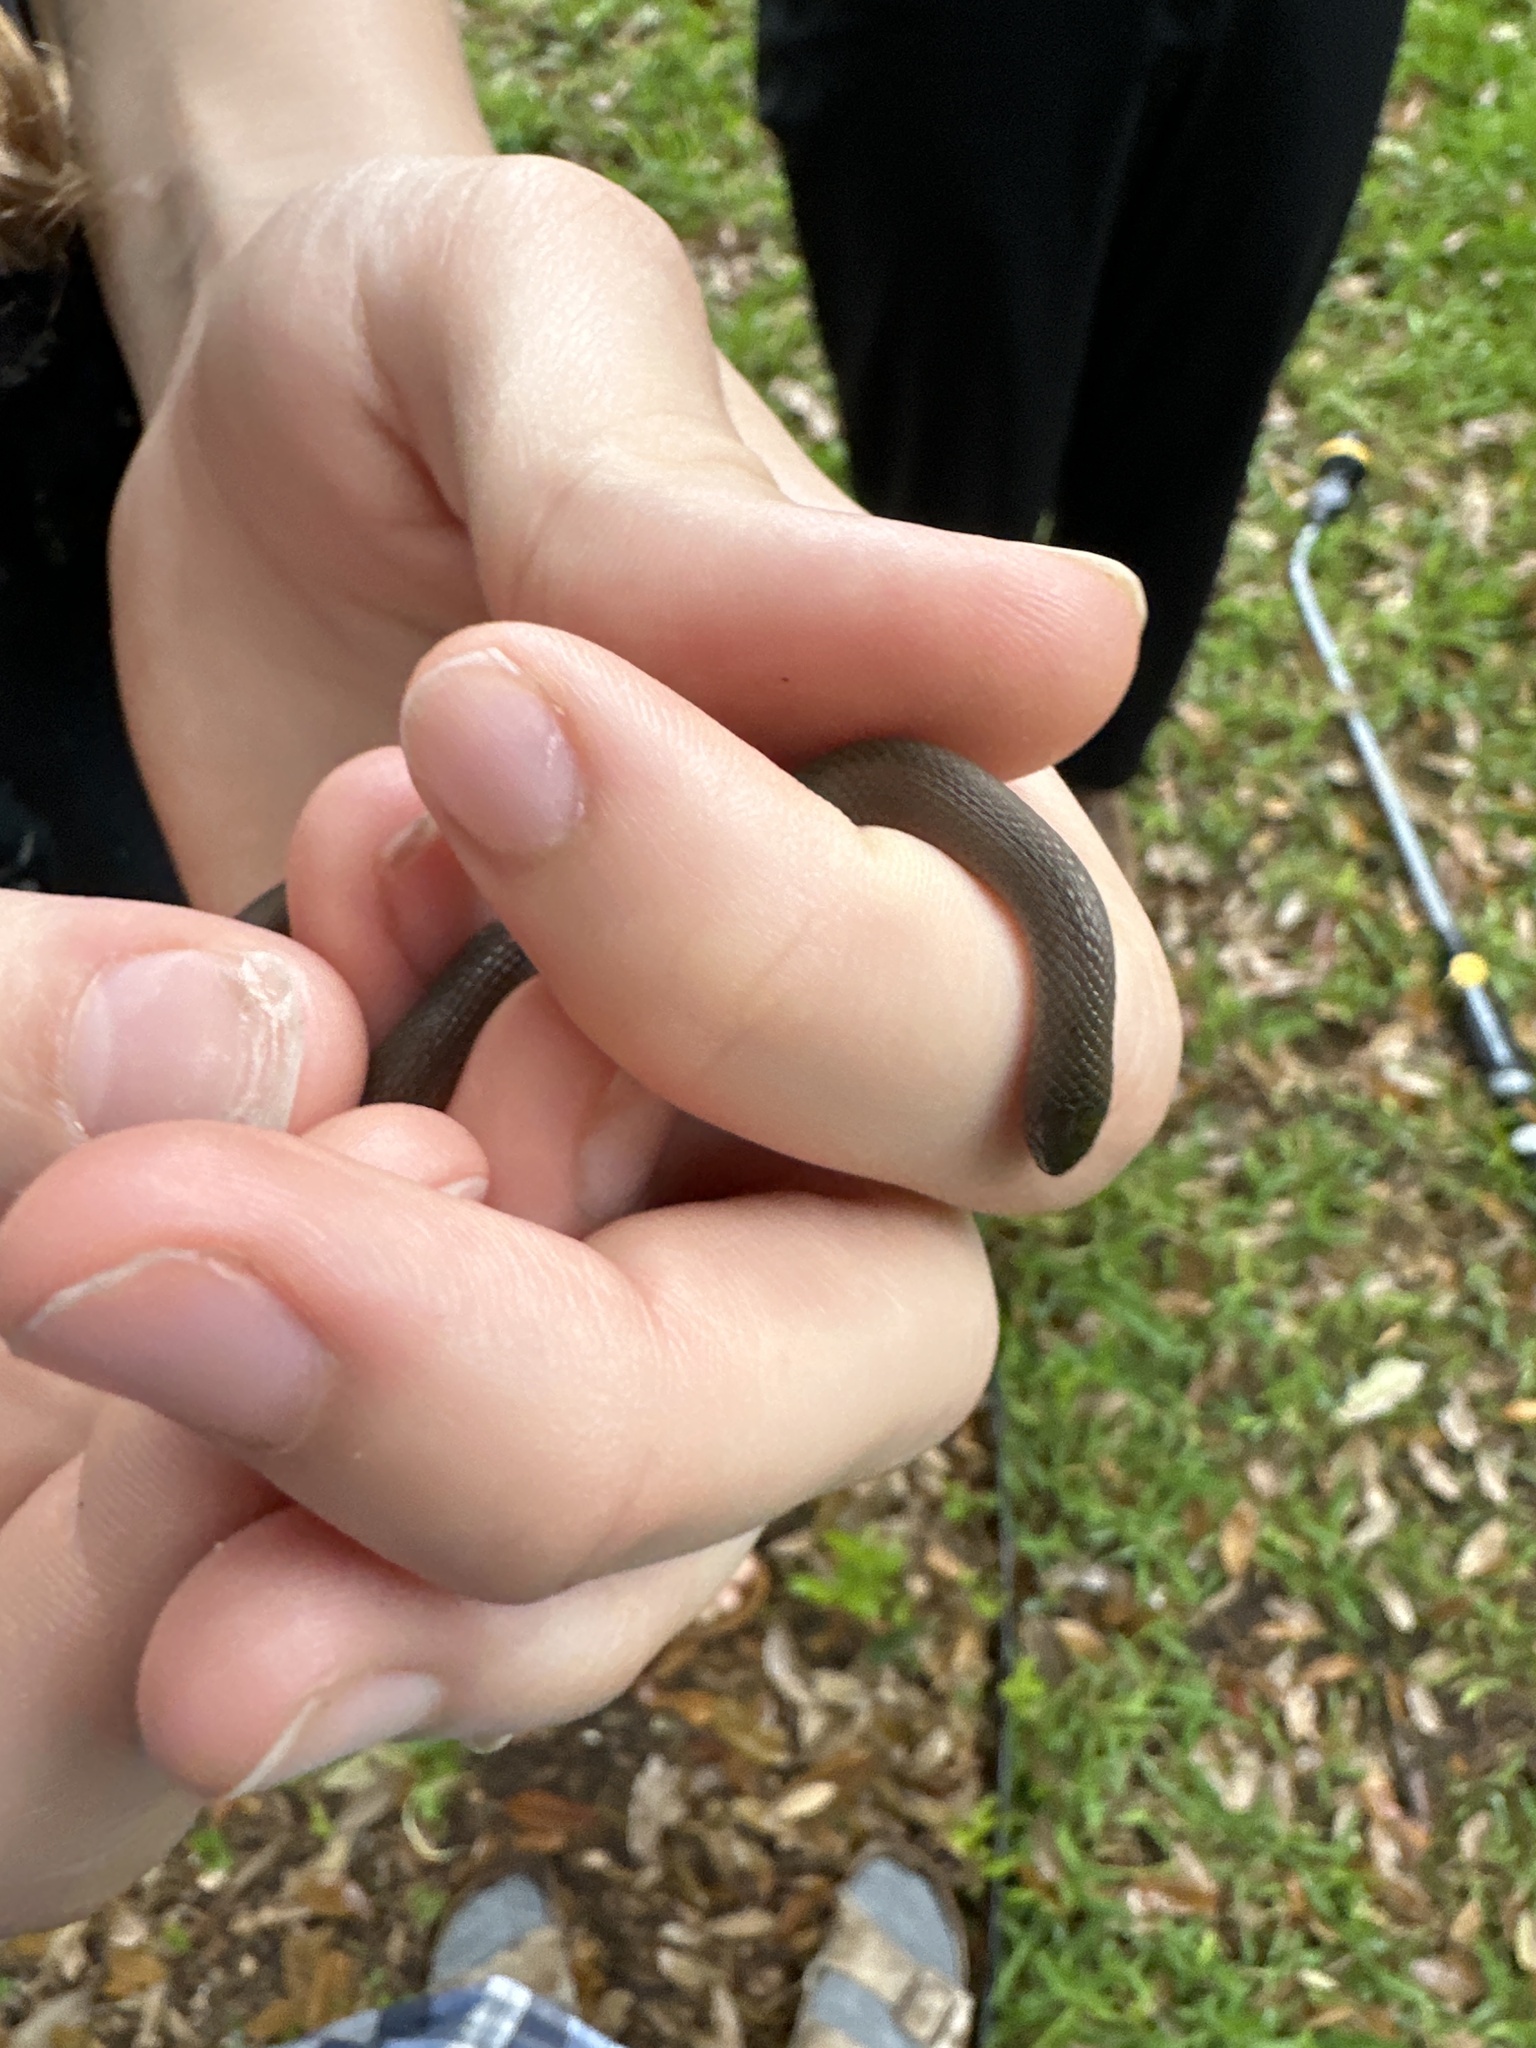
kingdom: Animalia
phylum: Chordata
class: Squamata
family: Colubridae
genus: Haldea
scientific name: Haldea striatula
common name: Rough earth snake
